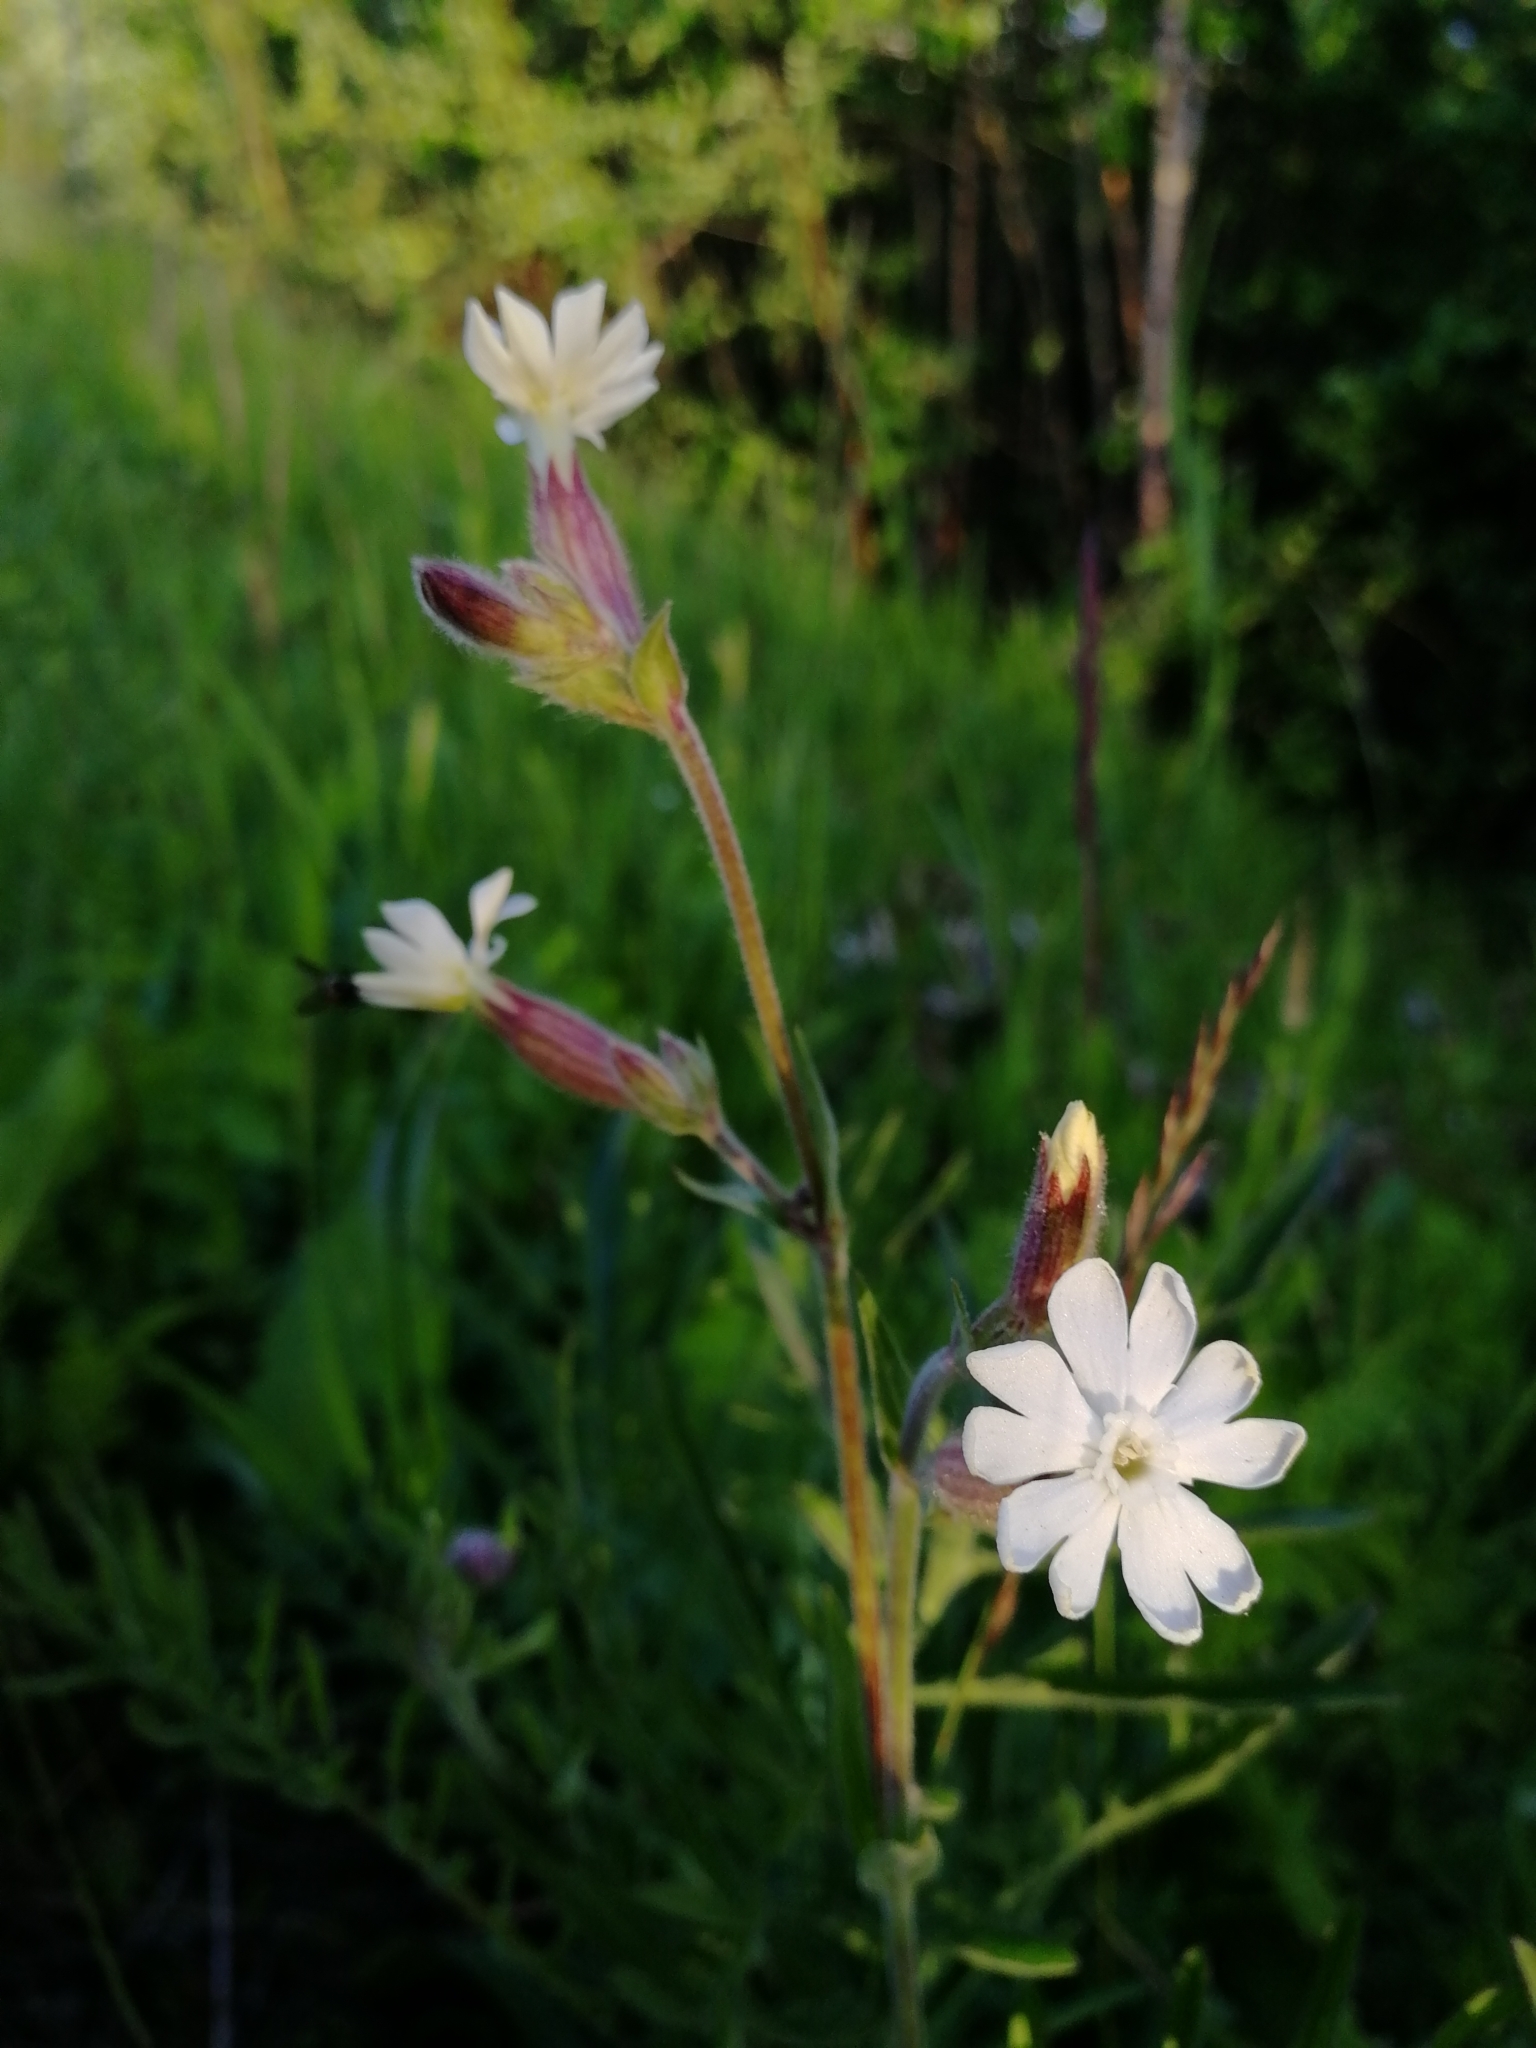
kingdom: Plantae
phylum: Tracheophyta
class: Magnoliopsida
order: Caryophyllales
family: Caryophyllaceae
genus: Silene
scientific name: Silene latifolia
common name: White campion
